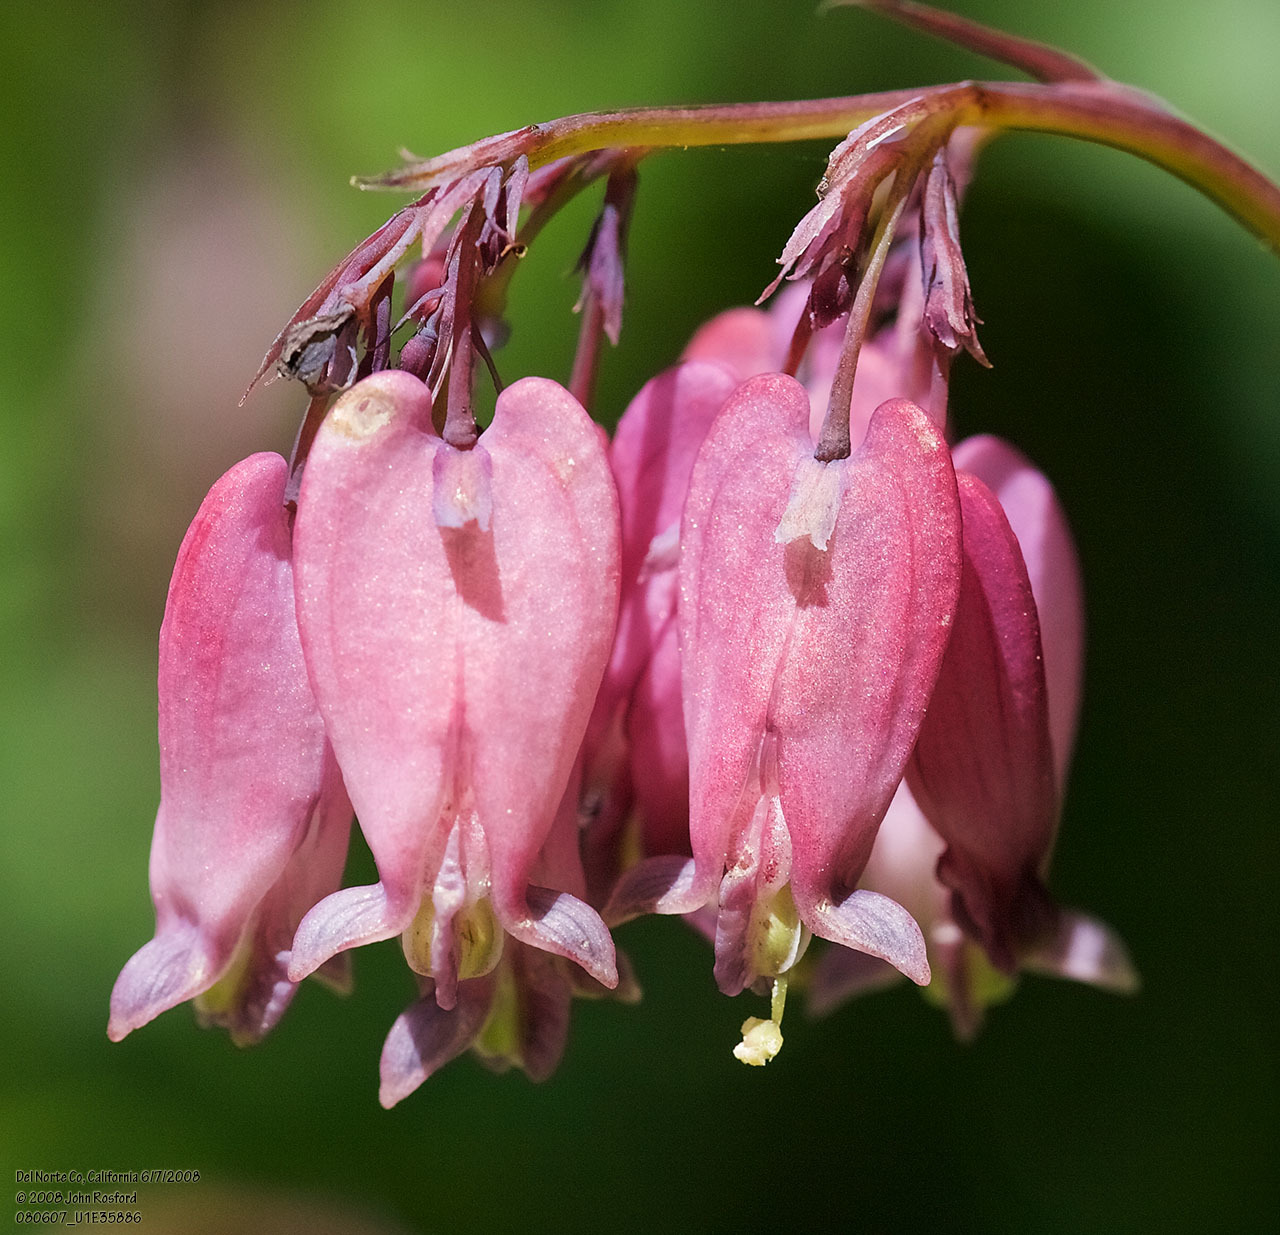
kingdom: Plantae
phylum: Tracheophyta
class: Magnoliopsida
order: Ranunculales
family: Papaveraceae
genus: Dicentra
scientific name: Dicentra formosa
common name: Bleeding-heart
